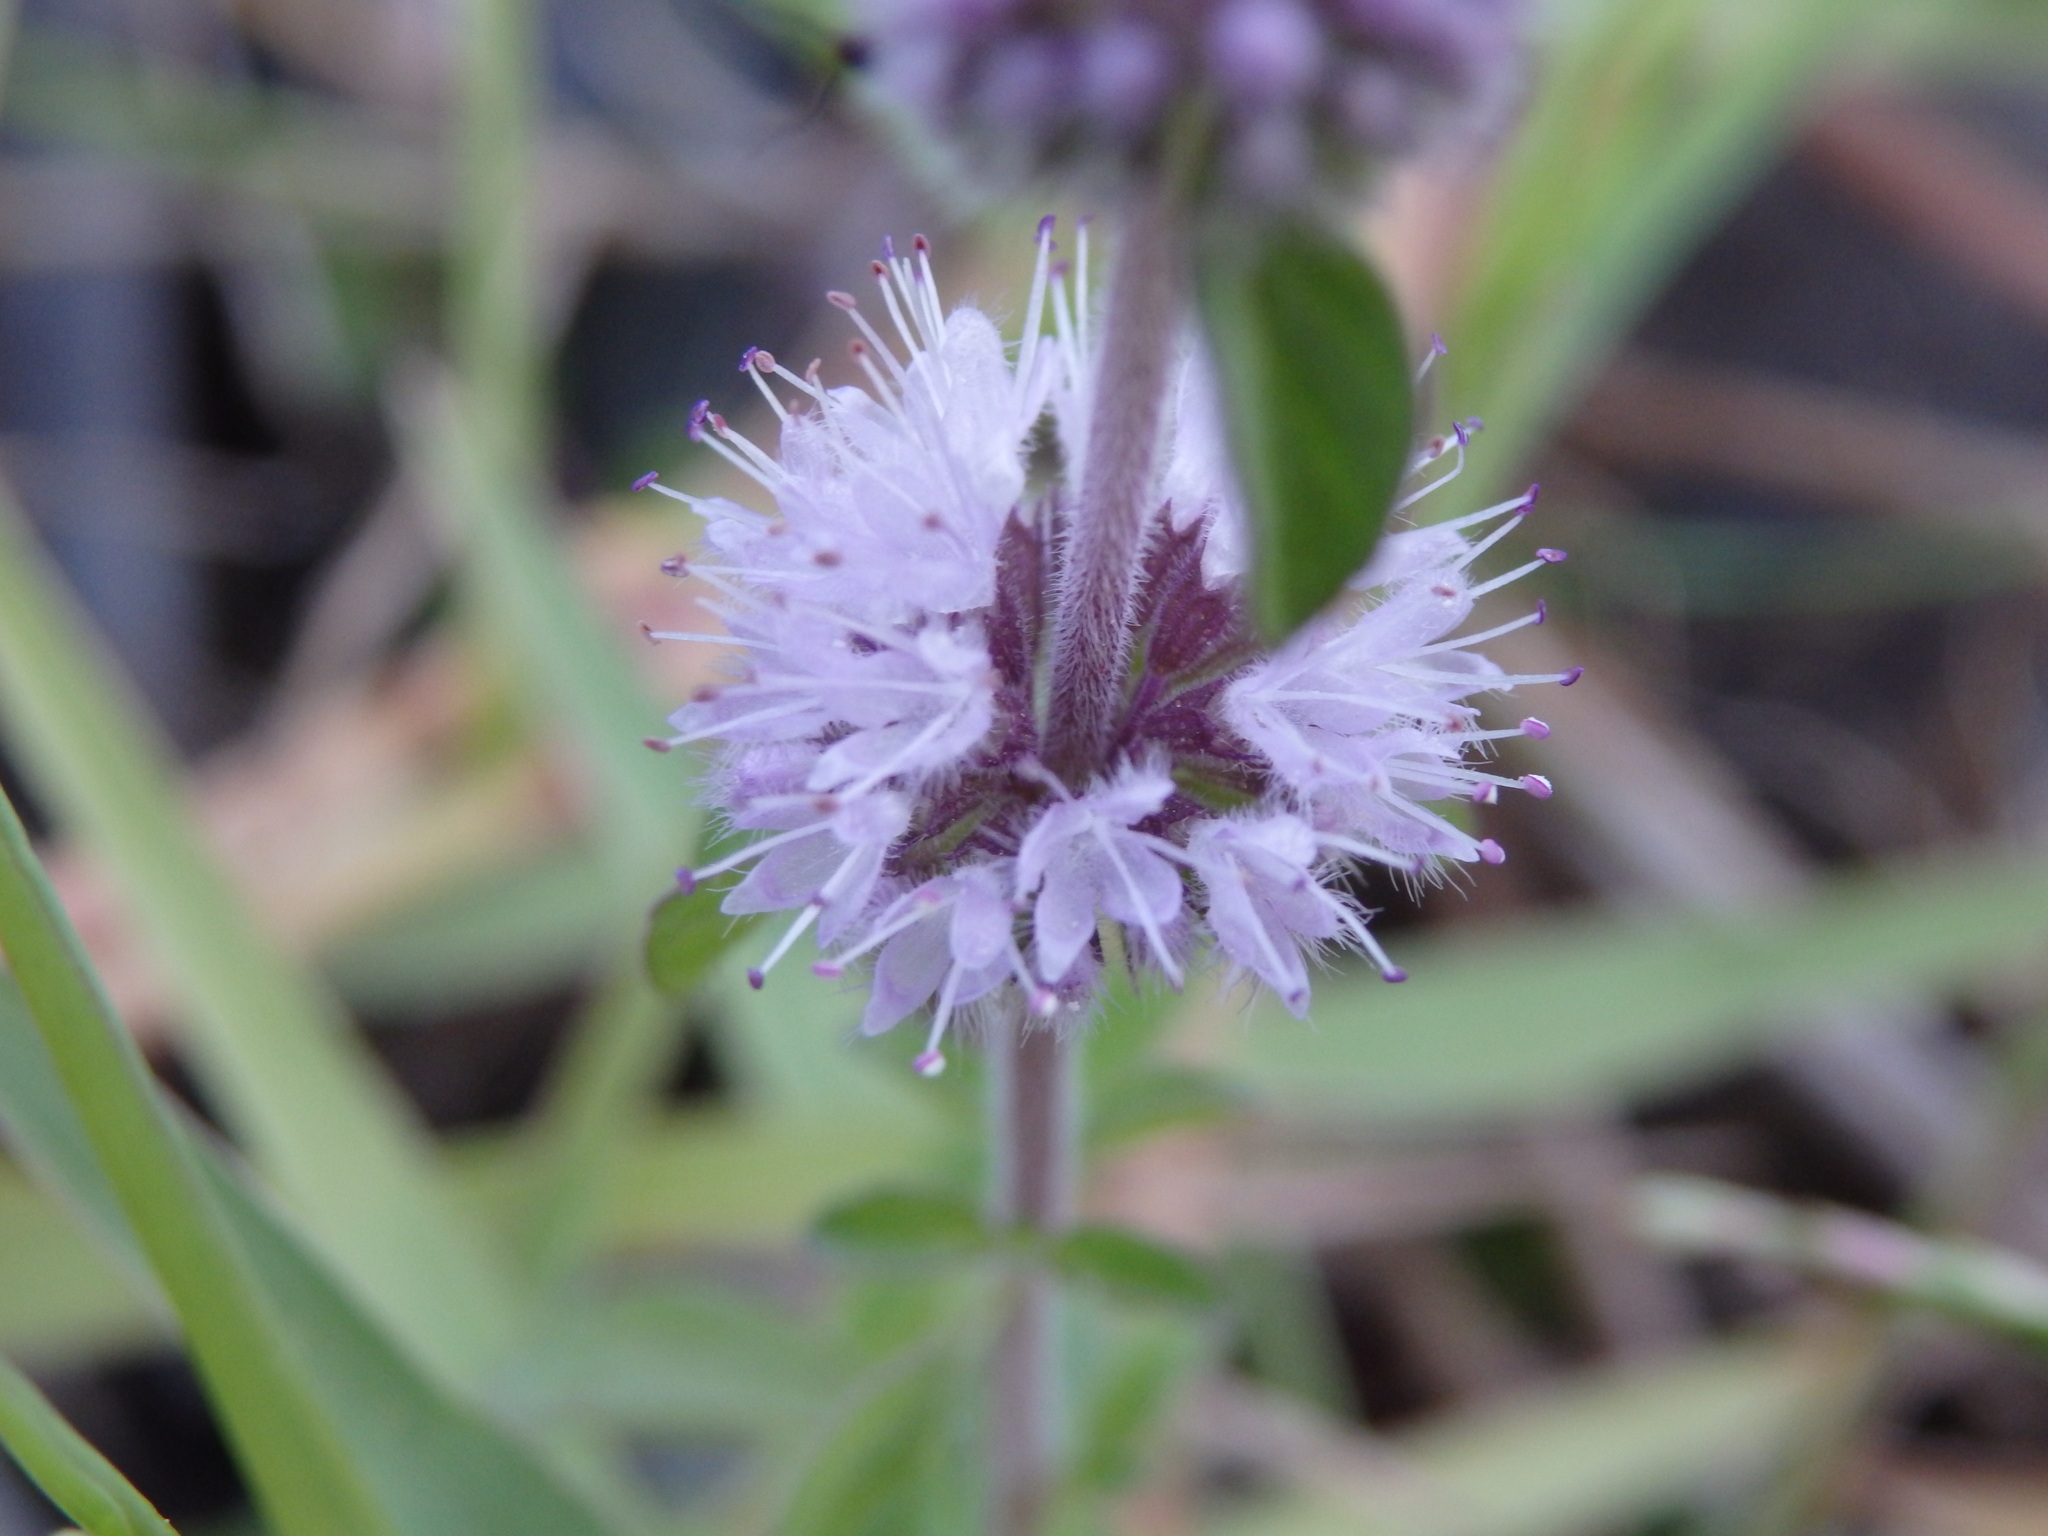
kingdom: Plantae
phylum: Tracheophyta
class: Magnoliopsida
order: Lamiales
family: Lamiaceae
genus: Mentha
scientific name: Mentha pulegium
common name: Pennyroyal
